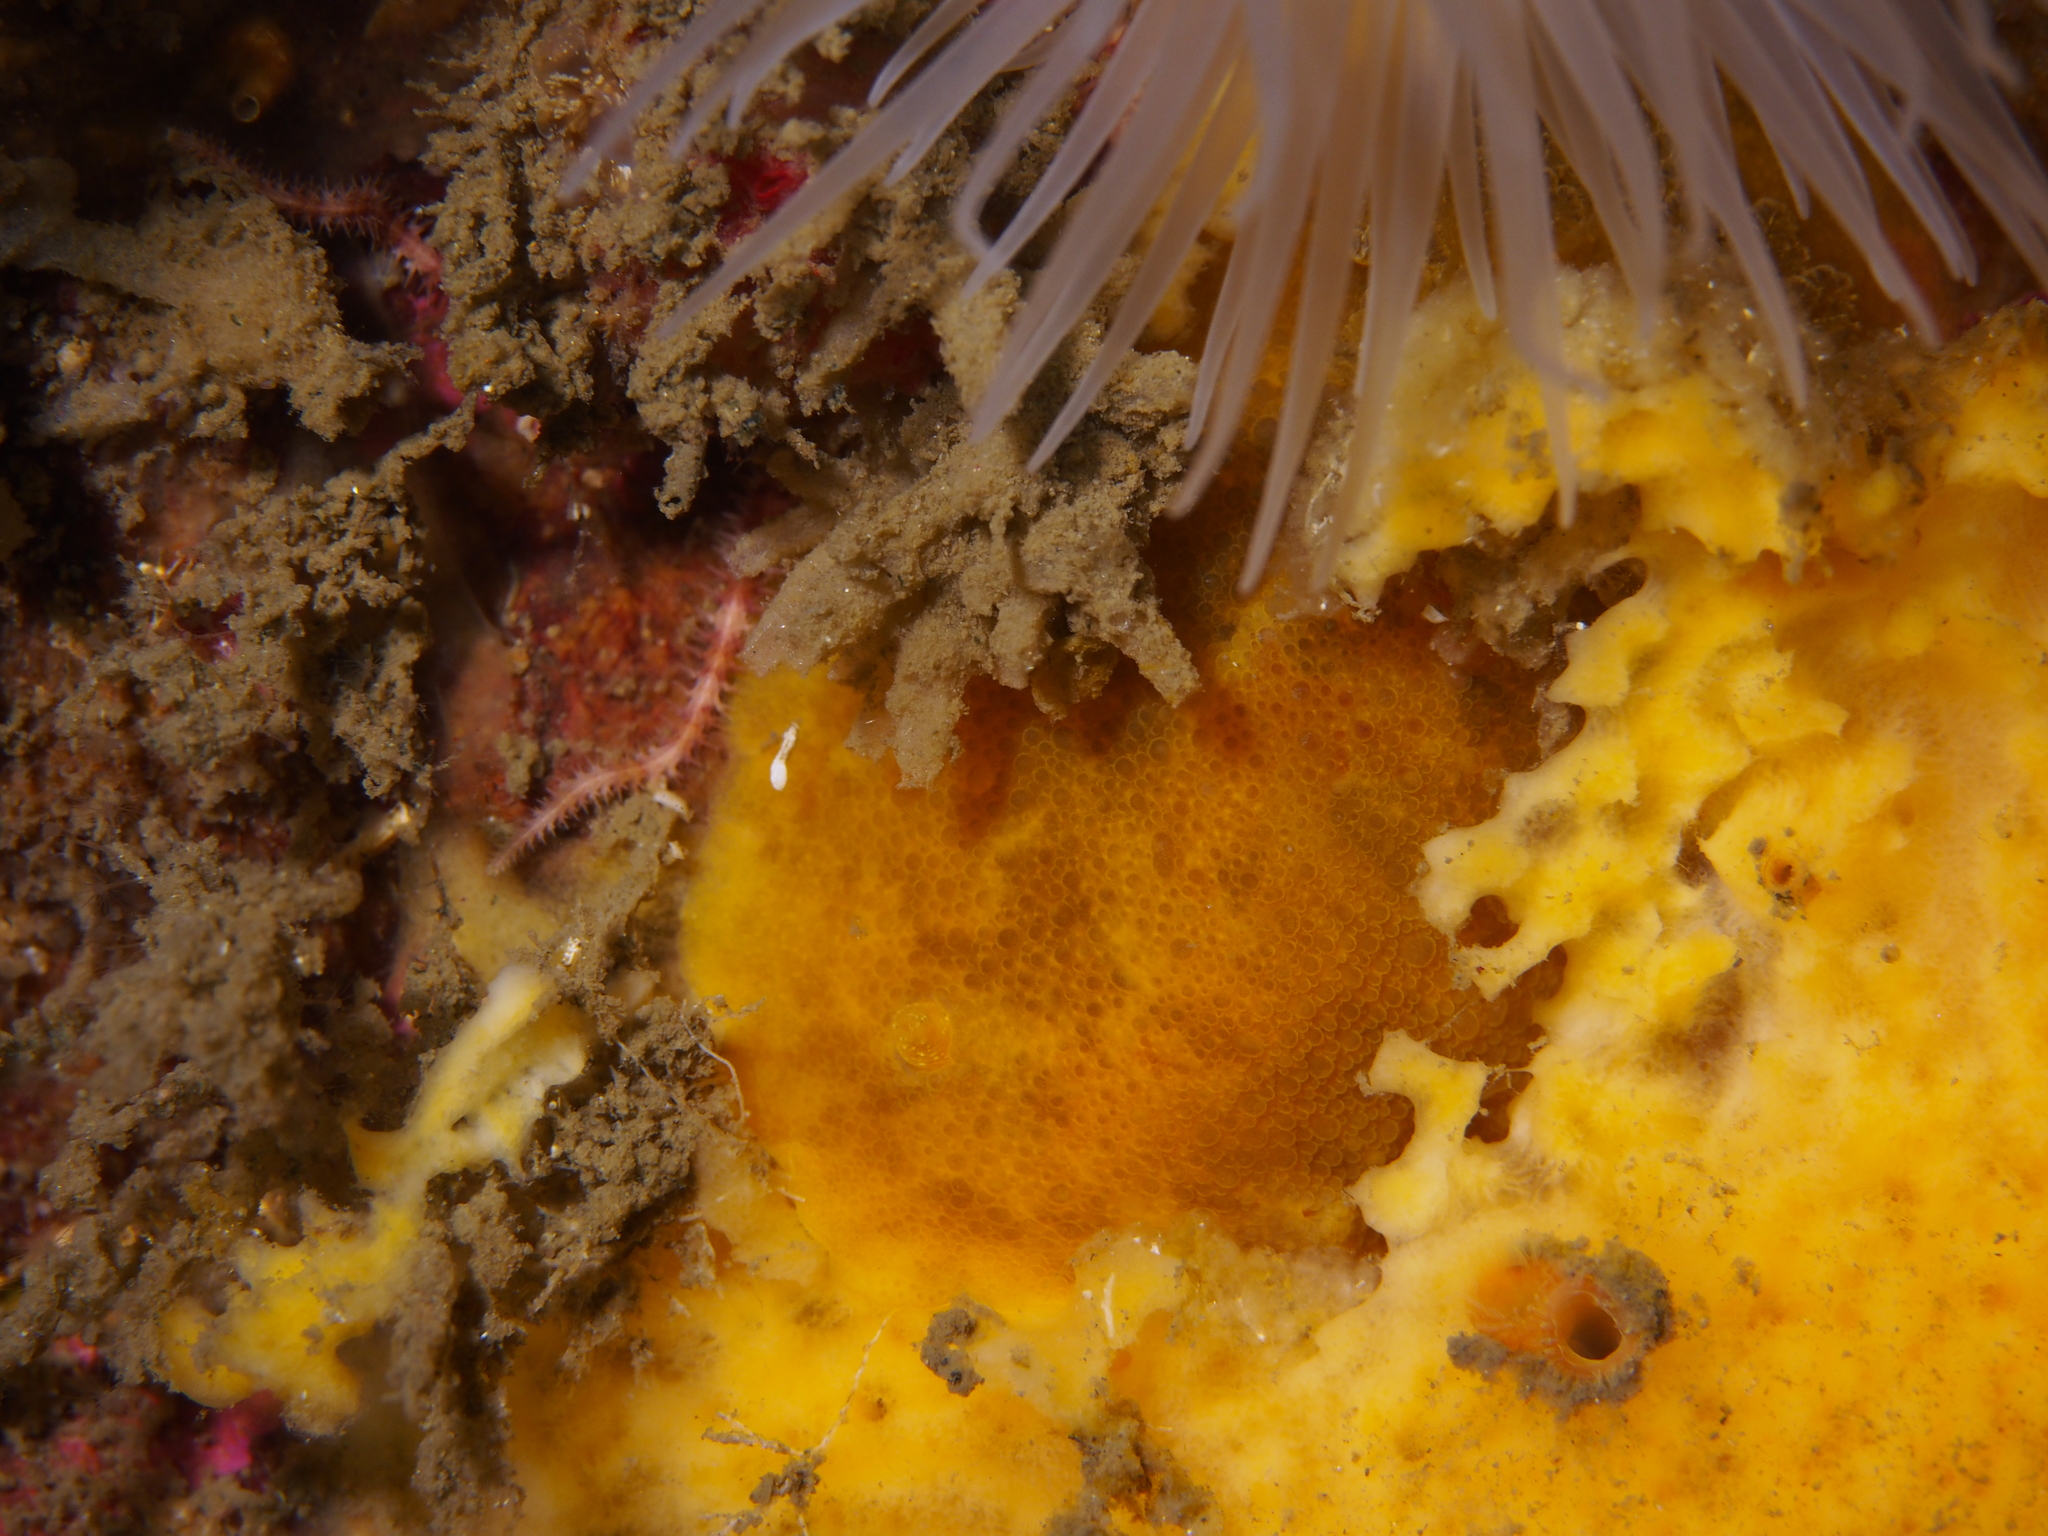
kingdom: Animalia
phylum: Mollusca
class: Gastropoda
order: Nudibranchia
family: Dorididae
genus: Doris
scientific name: Doris pseudoargus
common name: Sea lemon
